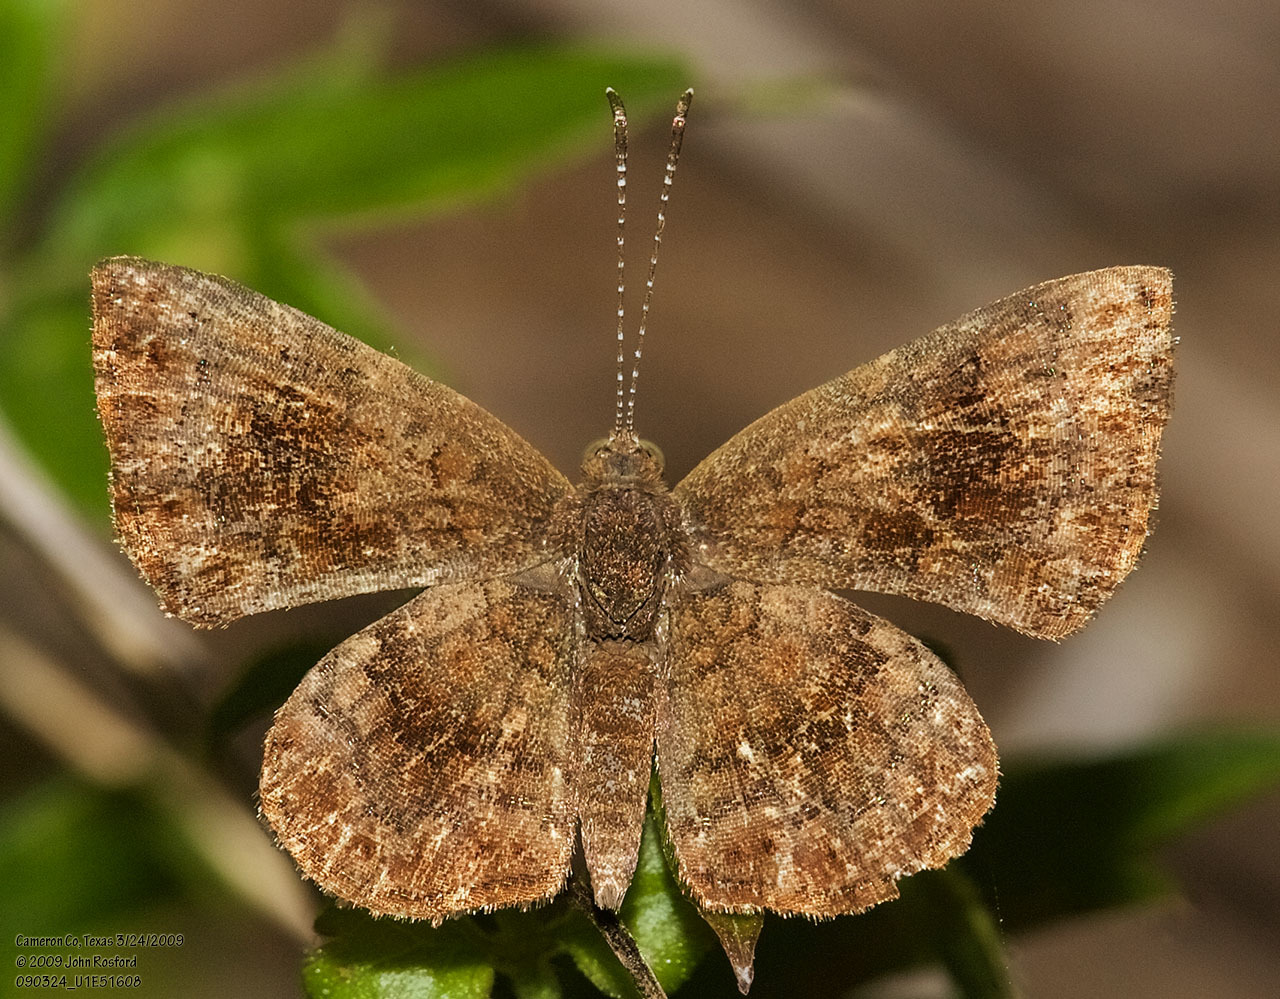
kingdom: Animalia
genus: Calephelis
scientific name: Calephelis perditalis
